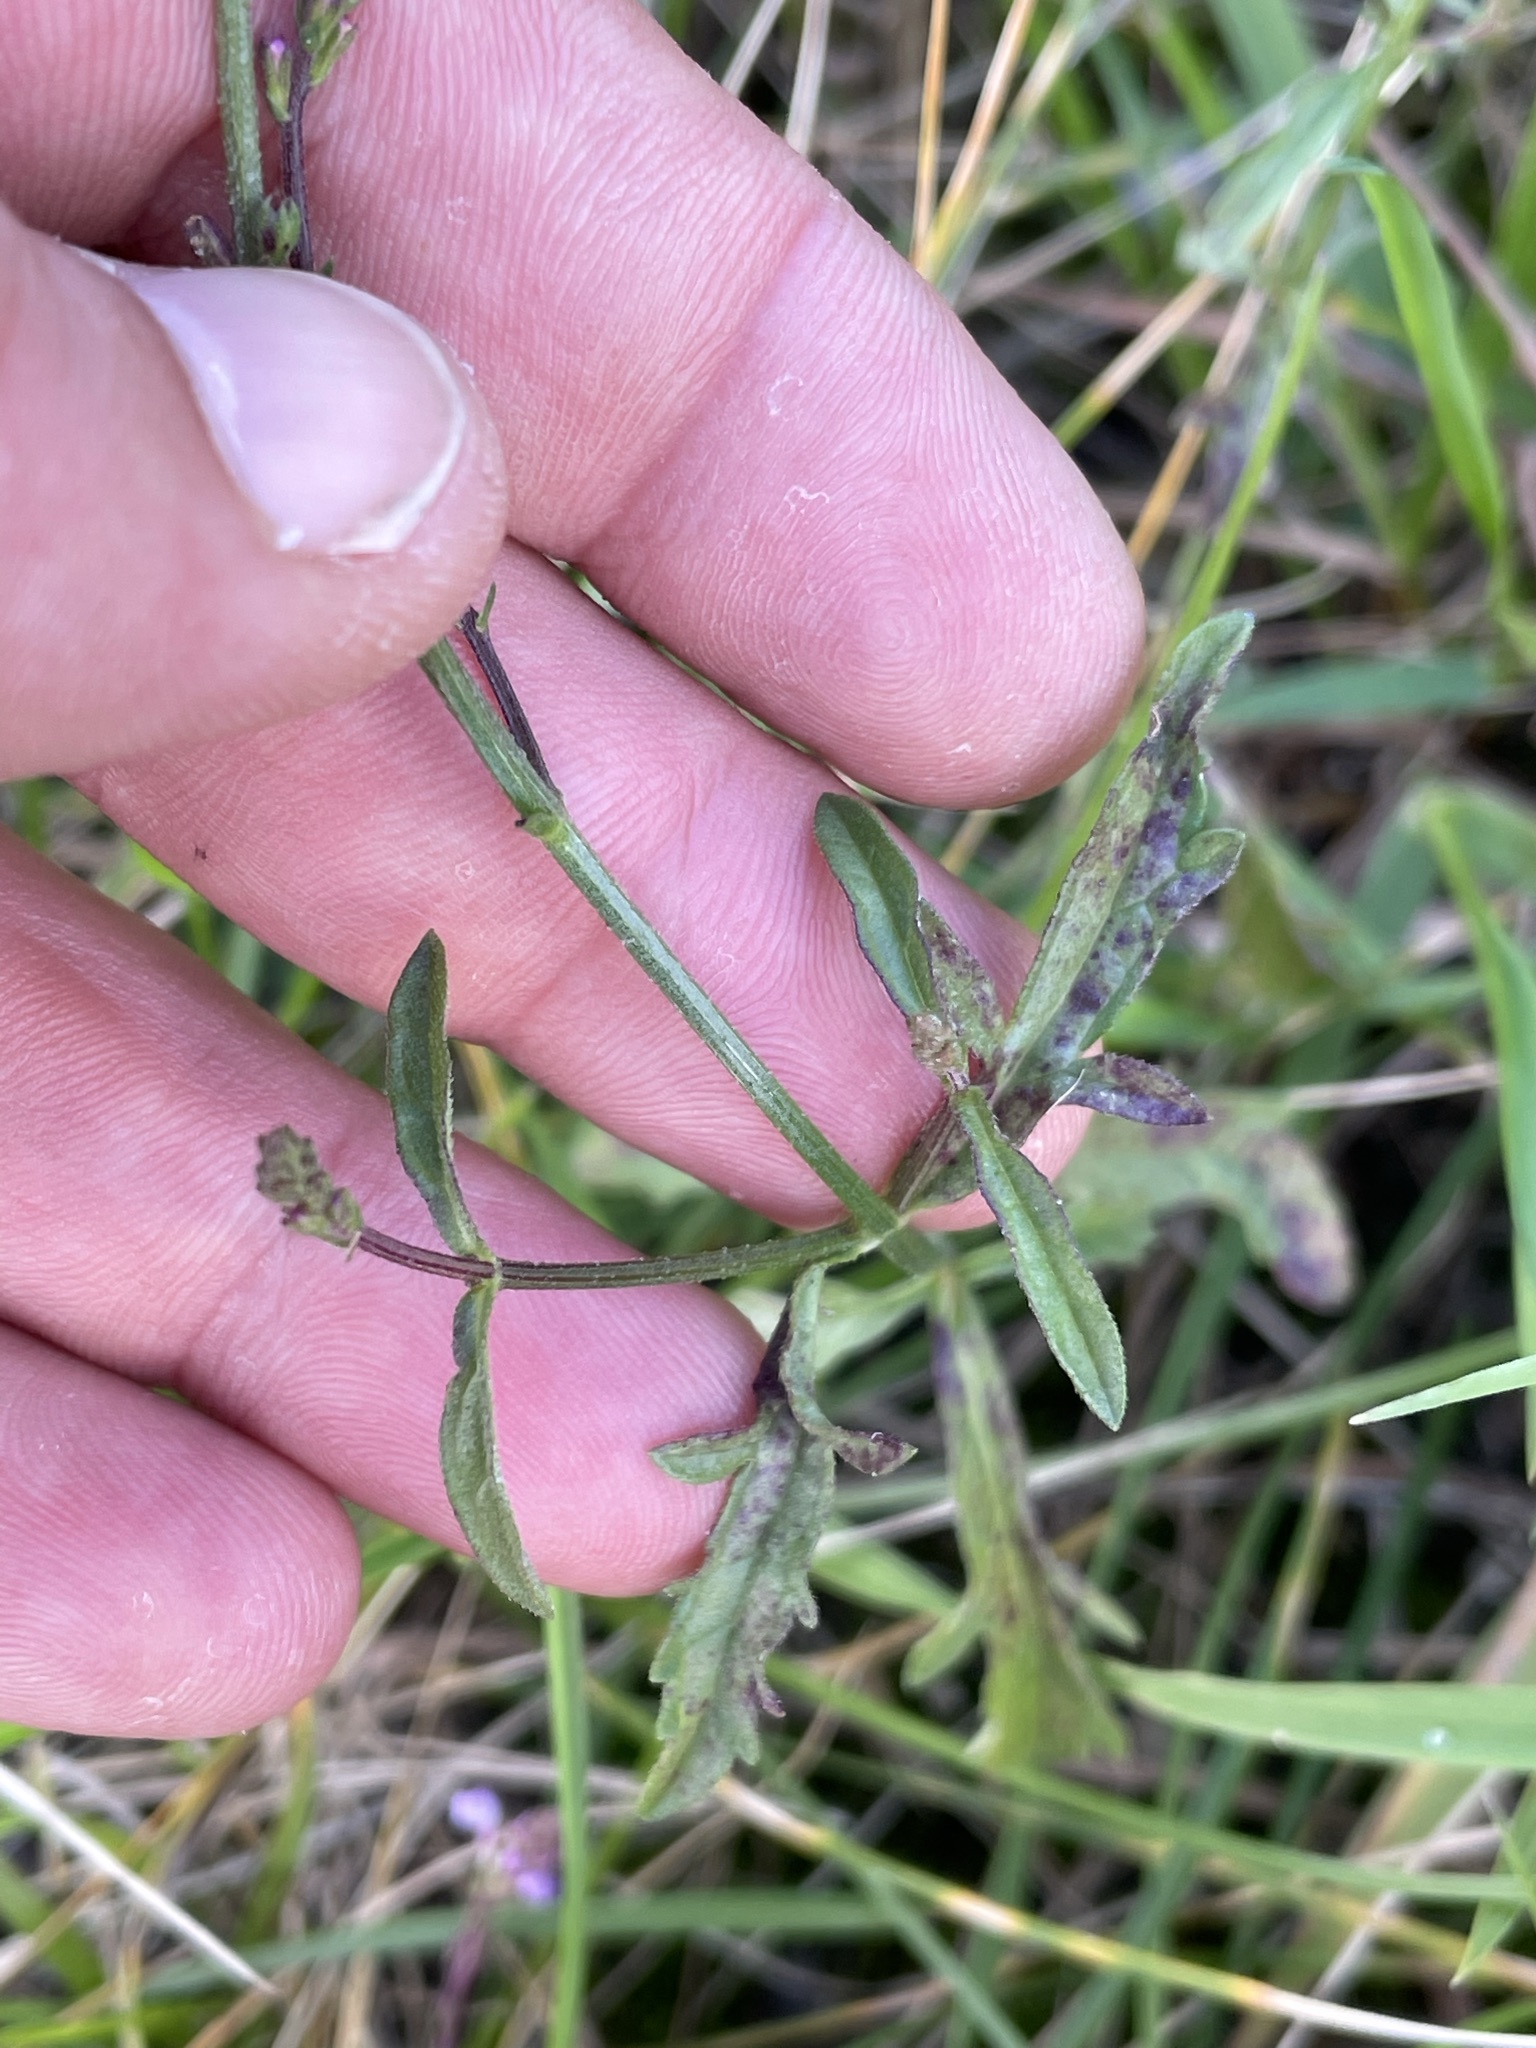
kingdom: Plantae
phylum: Tracheophyta
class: Magnoliopsida
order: Lamiales
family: Verbenaceae
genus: Verbena
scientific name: Verbena officinalis
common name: Vervain
